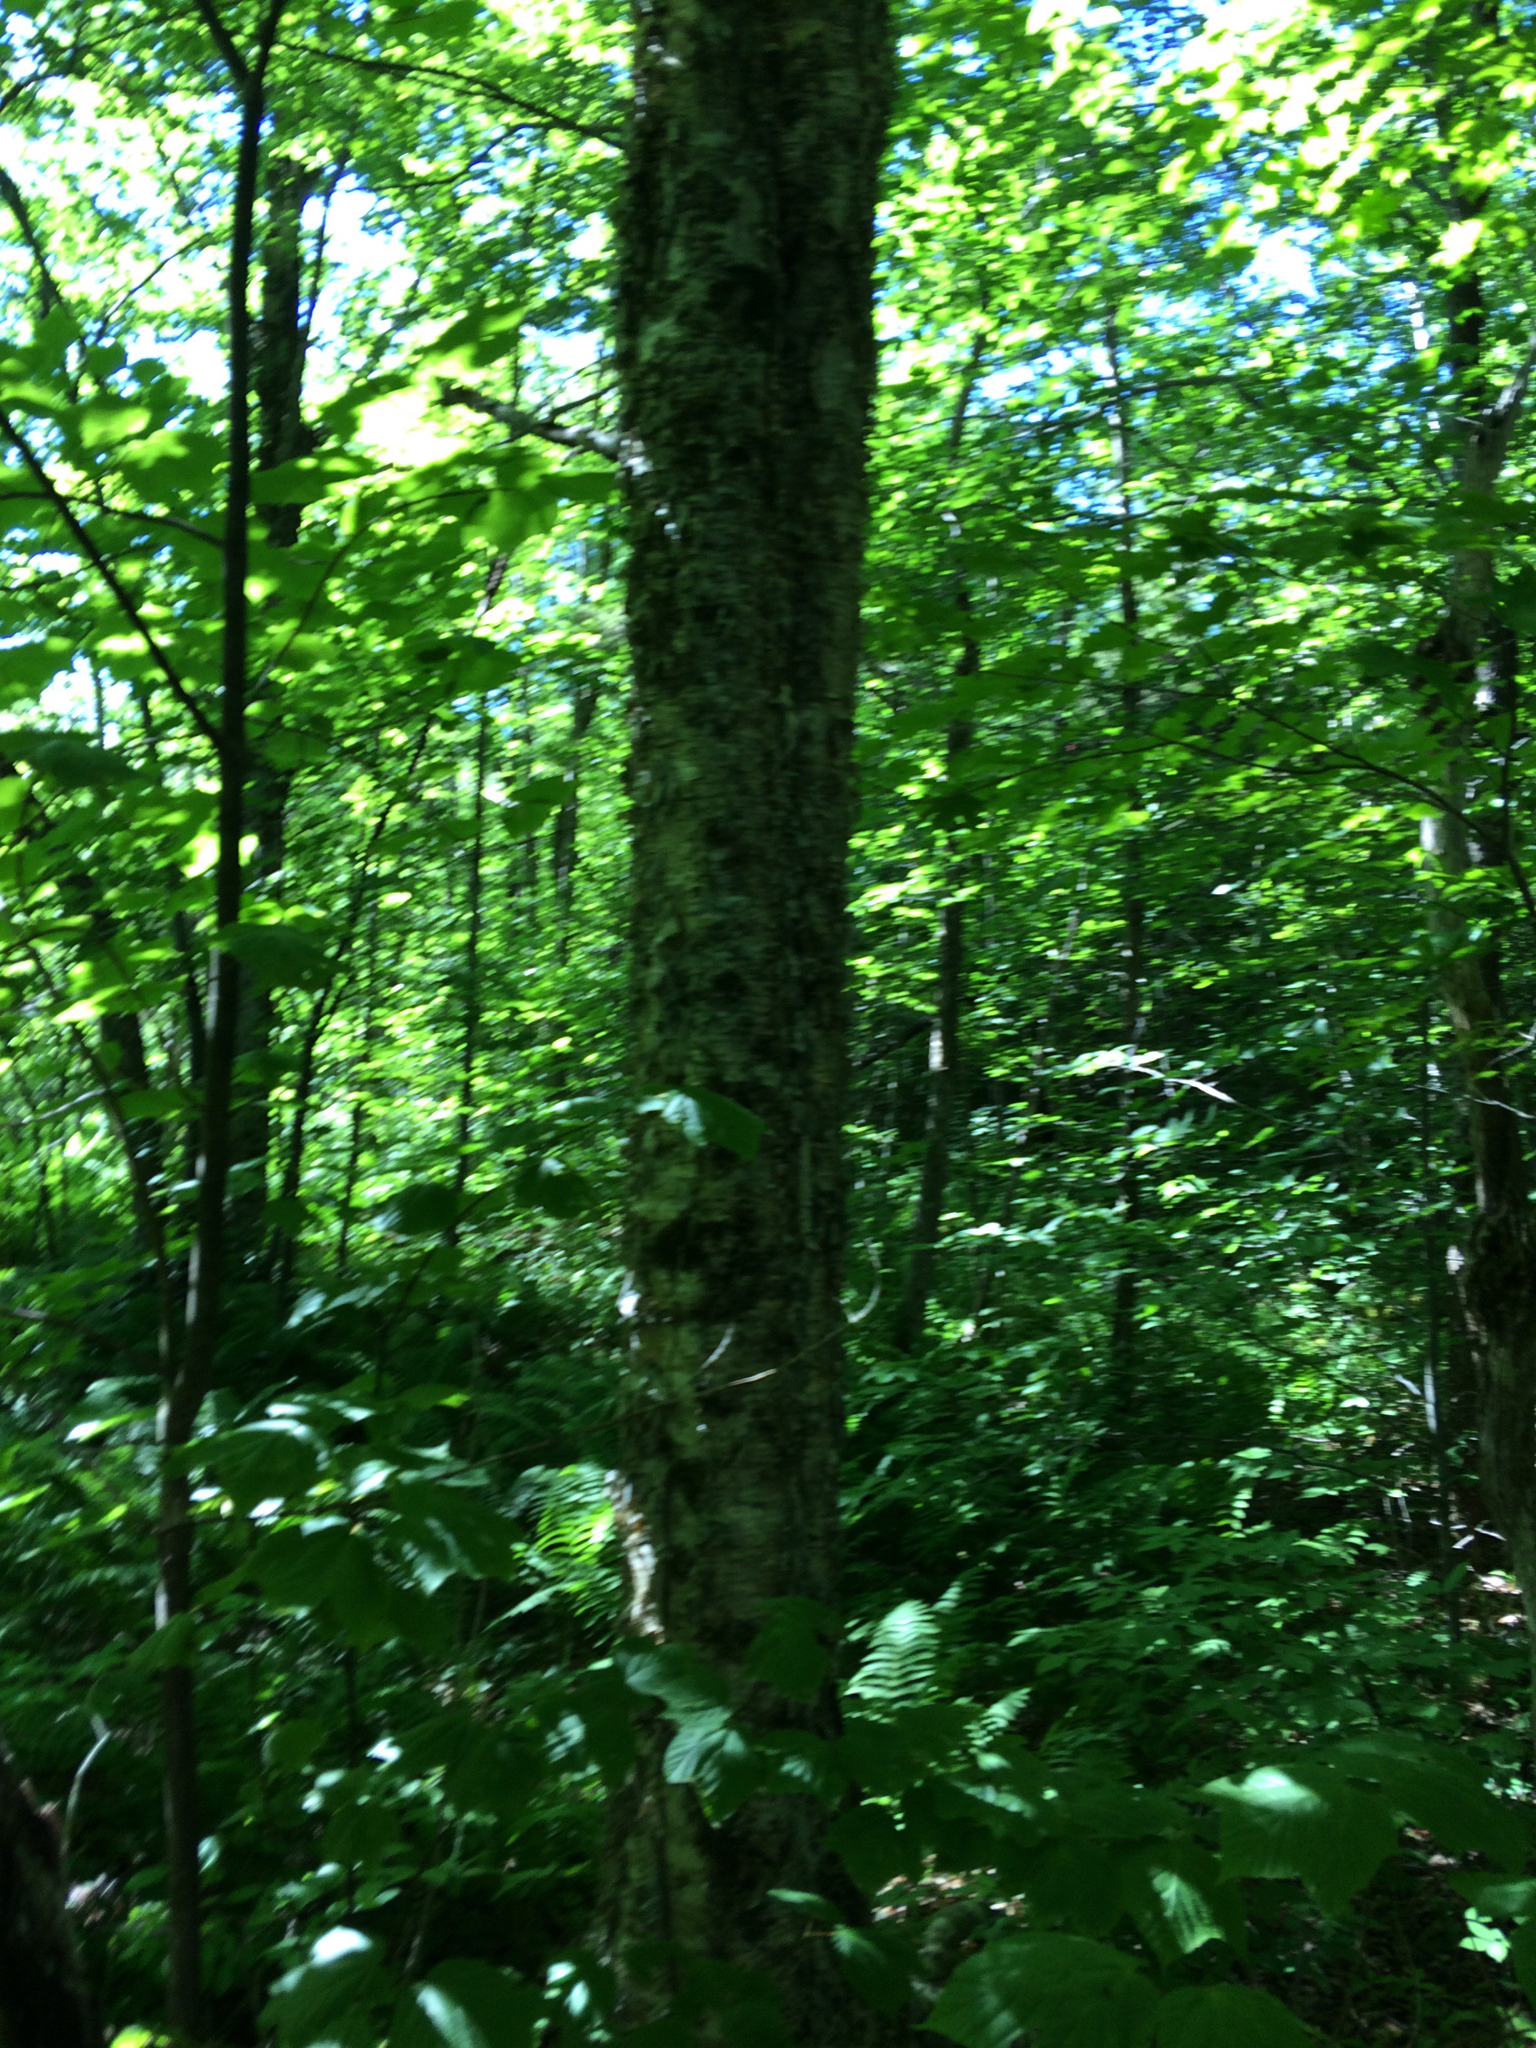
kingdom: Plantae
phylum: Tracheophyta
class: Magnoliopsida
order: Fagales
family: Betulaceae
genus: Betula
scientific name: Betula alleghaniensis
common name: Yellow birch
